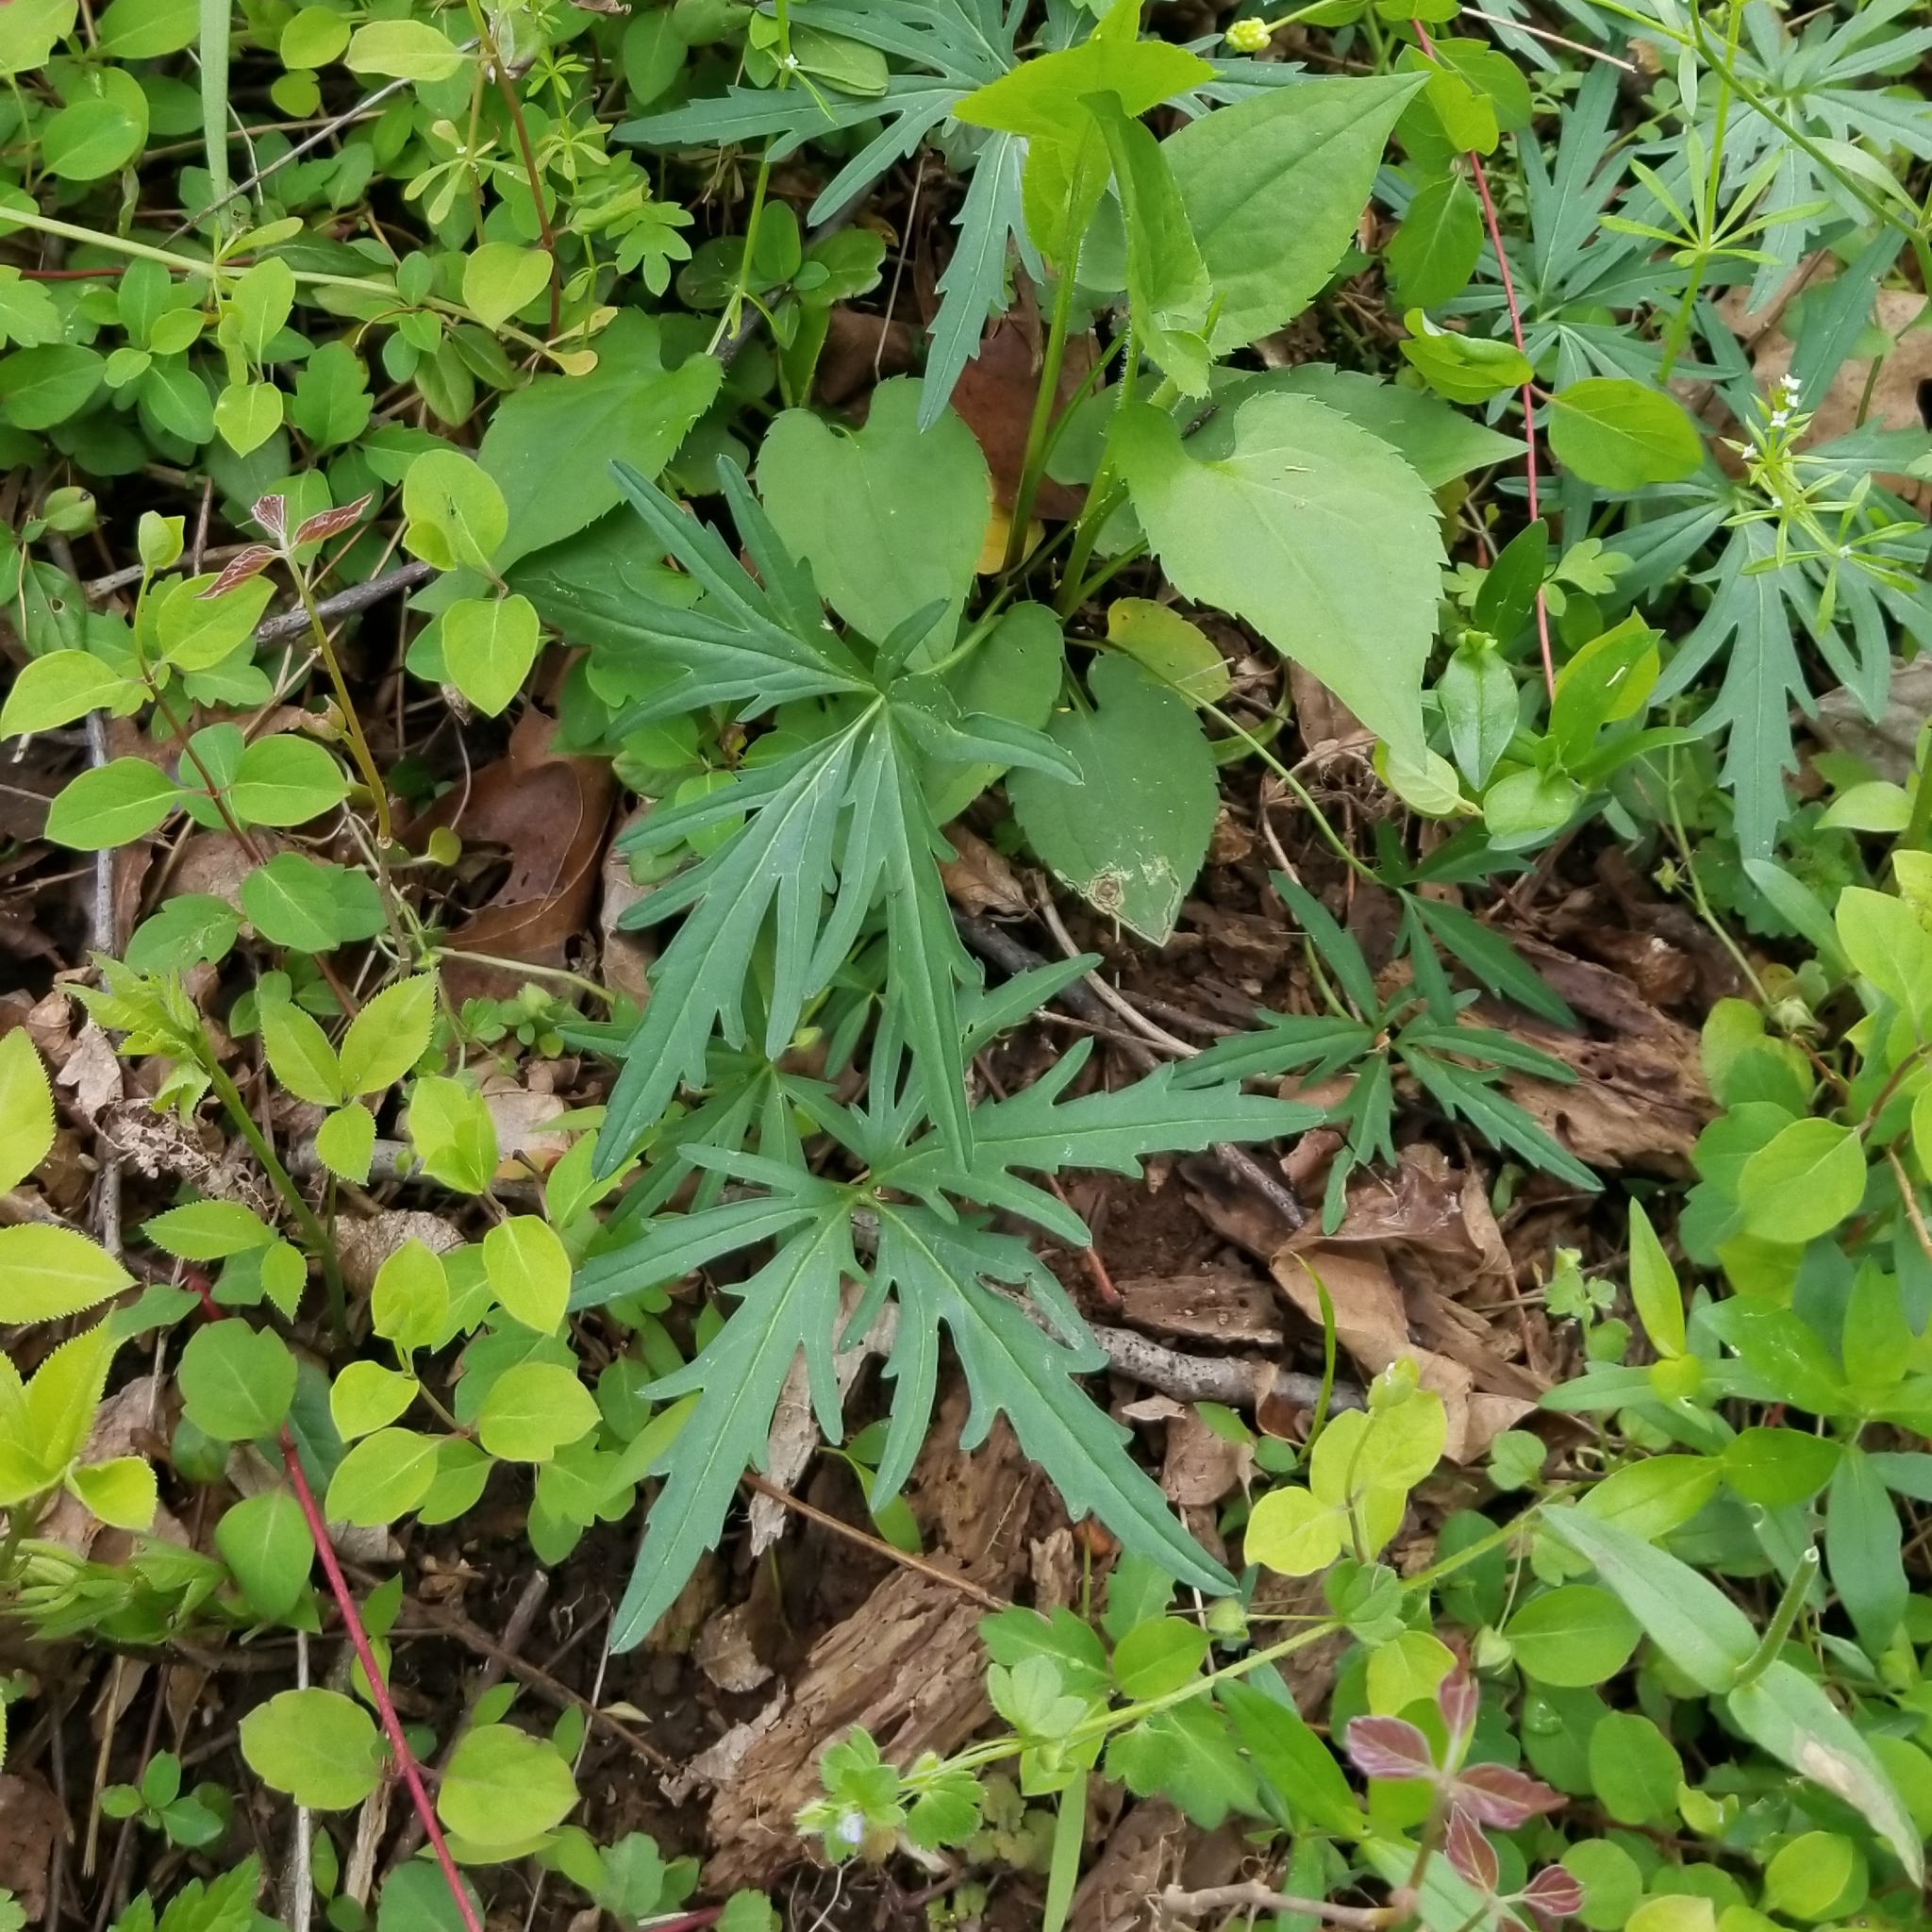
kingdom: Plantae
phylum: Tracheophyta
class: Magnoliopsida
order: Brassicales
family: Brassicaceae
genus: Cardamine
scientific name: Cardamine concatenata
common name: Cut-leaf toothcup
